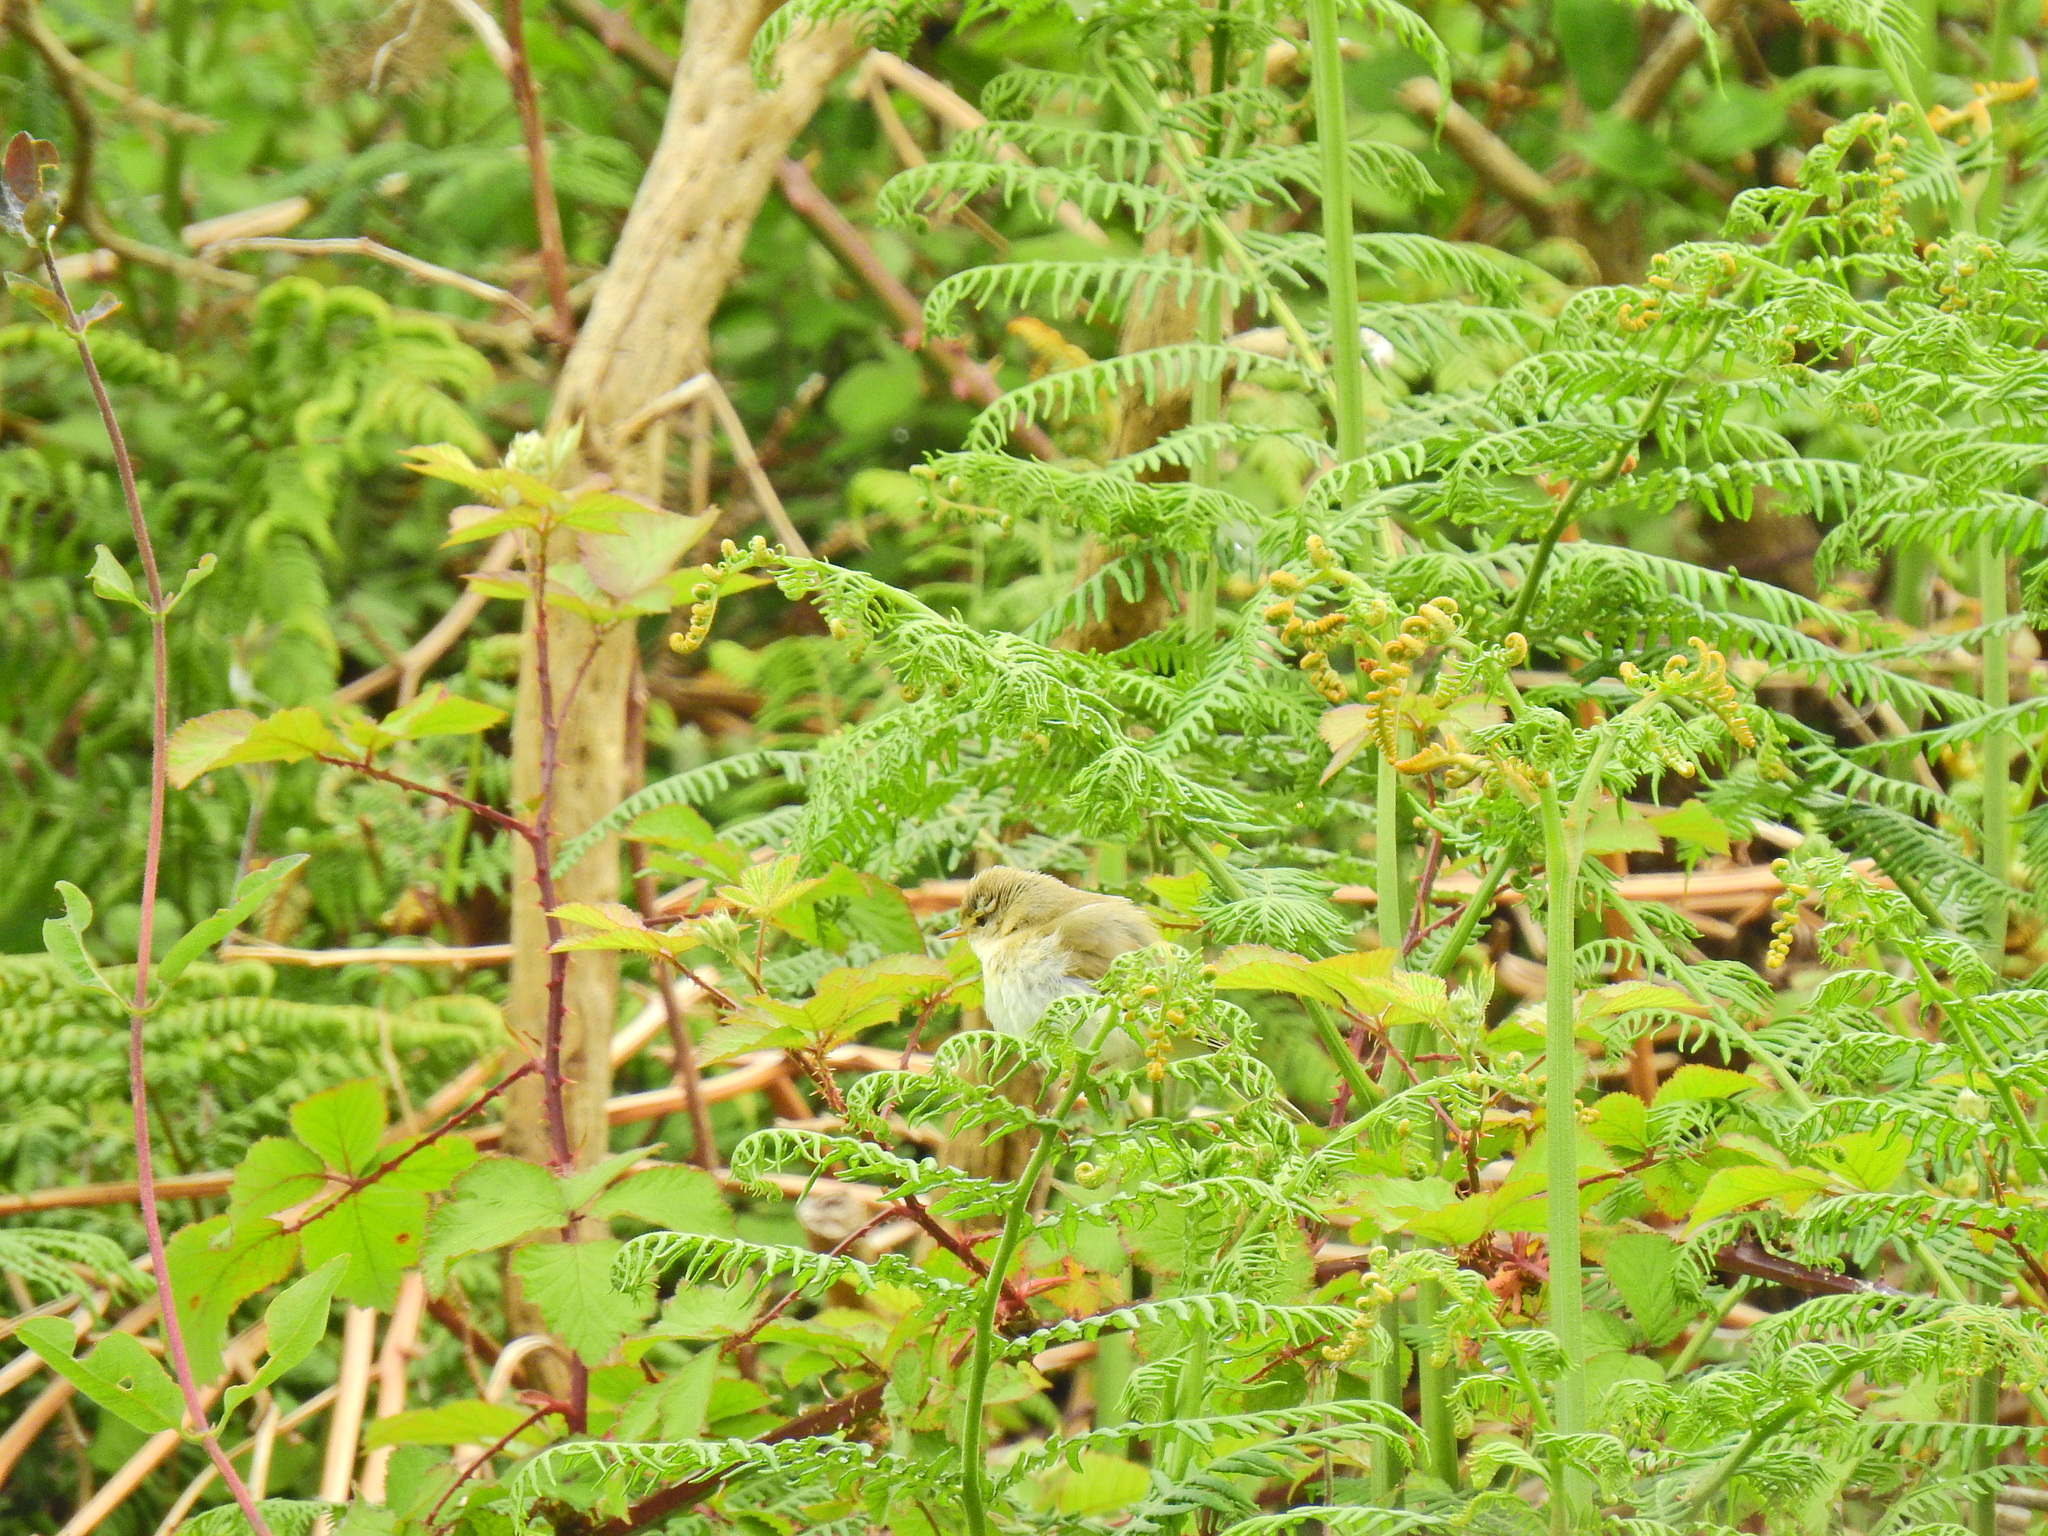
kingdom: Animalia
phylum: Chordata
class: Aves
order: Passeriformes
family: Phylloscopidae
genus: Phylloscopus
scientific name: Phylloscopus trochilus
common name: Willow warbler
